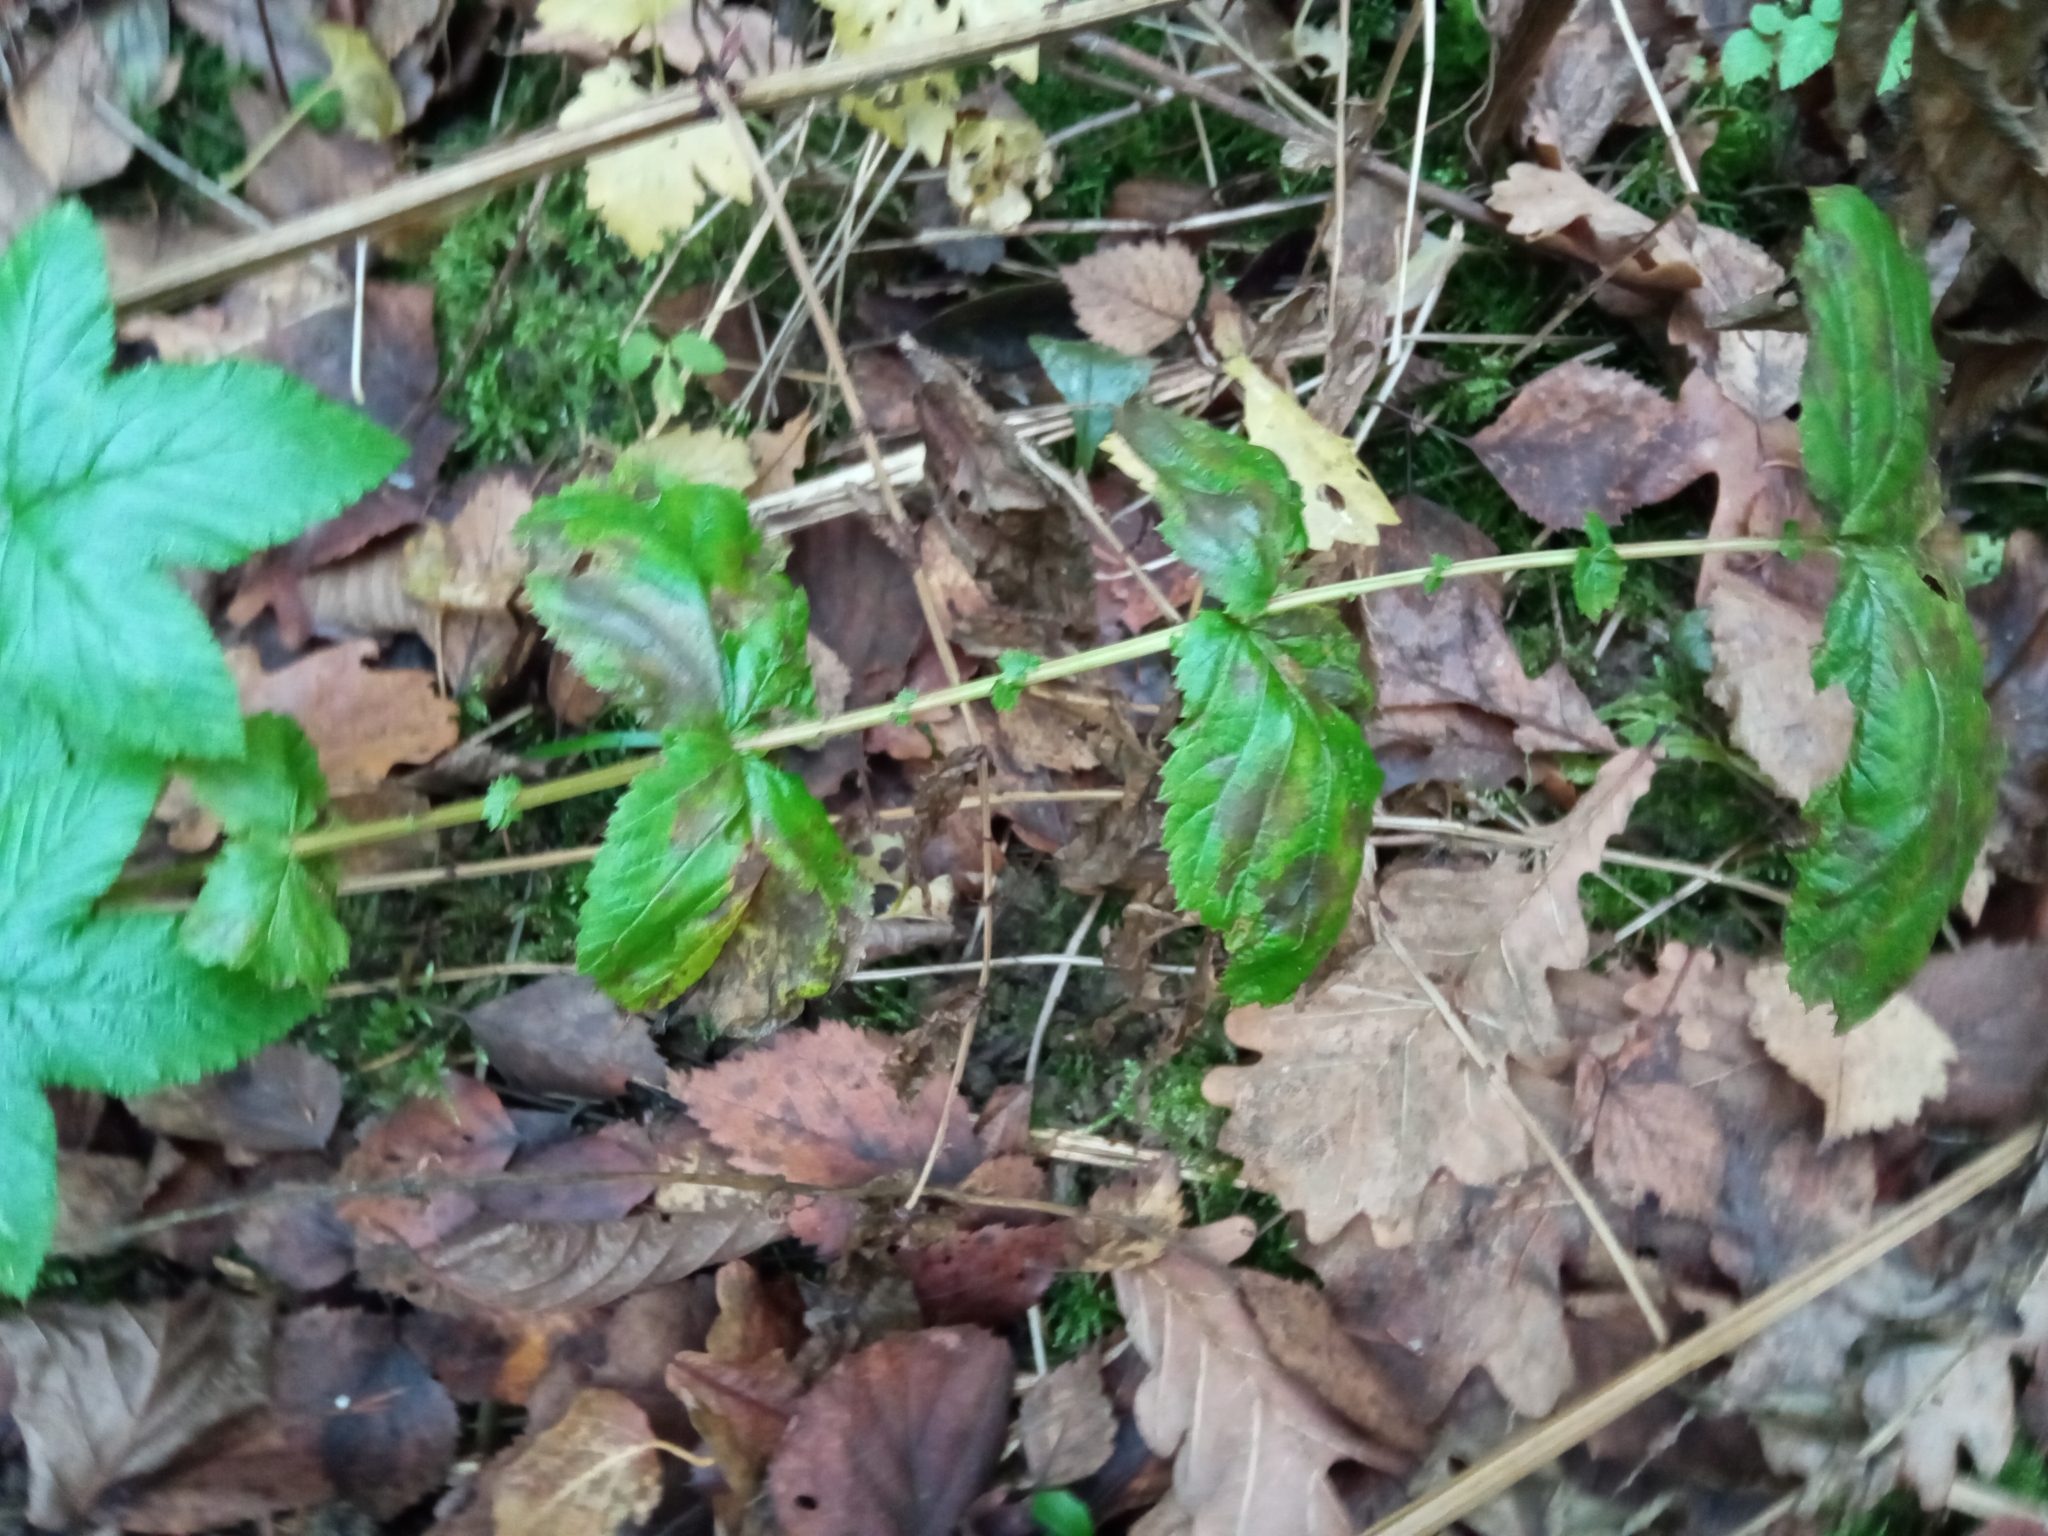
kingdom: Plantae
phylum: Tracheophyta
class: Magnoliopsida
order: Rosales
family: Rosaceae
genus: Filipendula
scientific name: Filipendula ulmaria
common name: Meadowsweet
